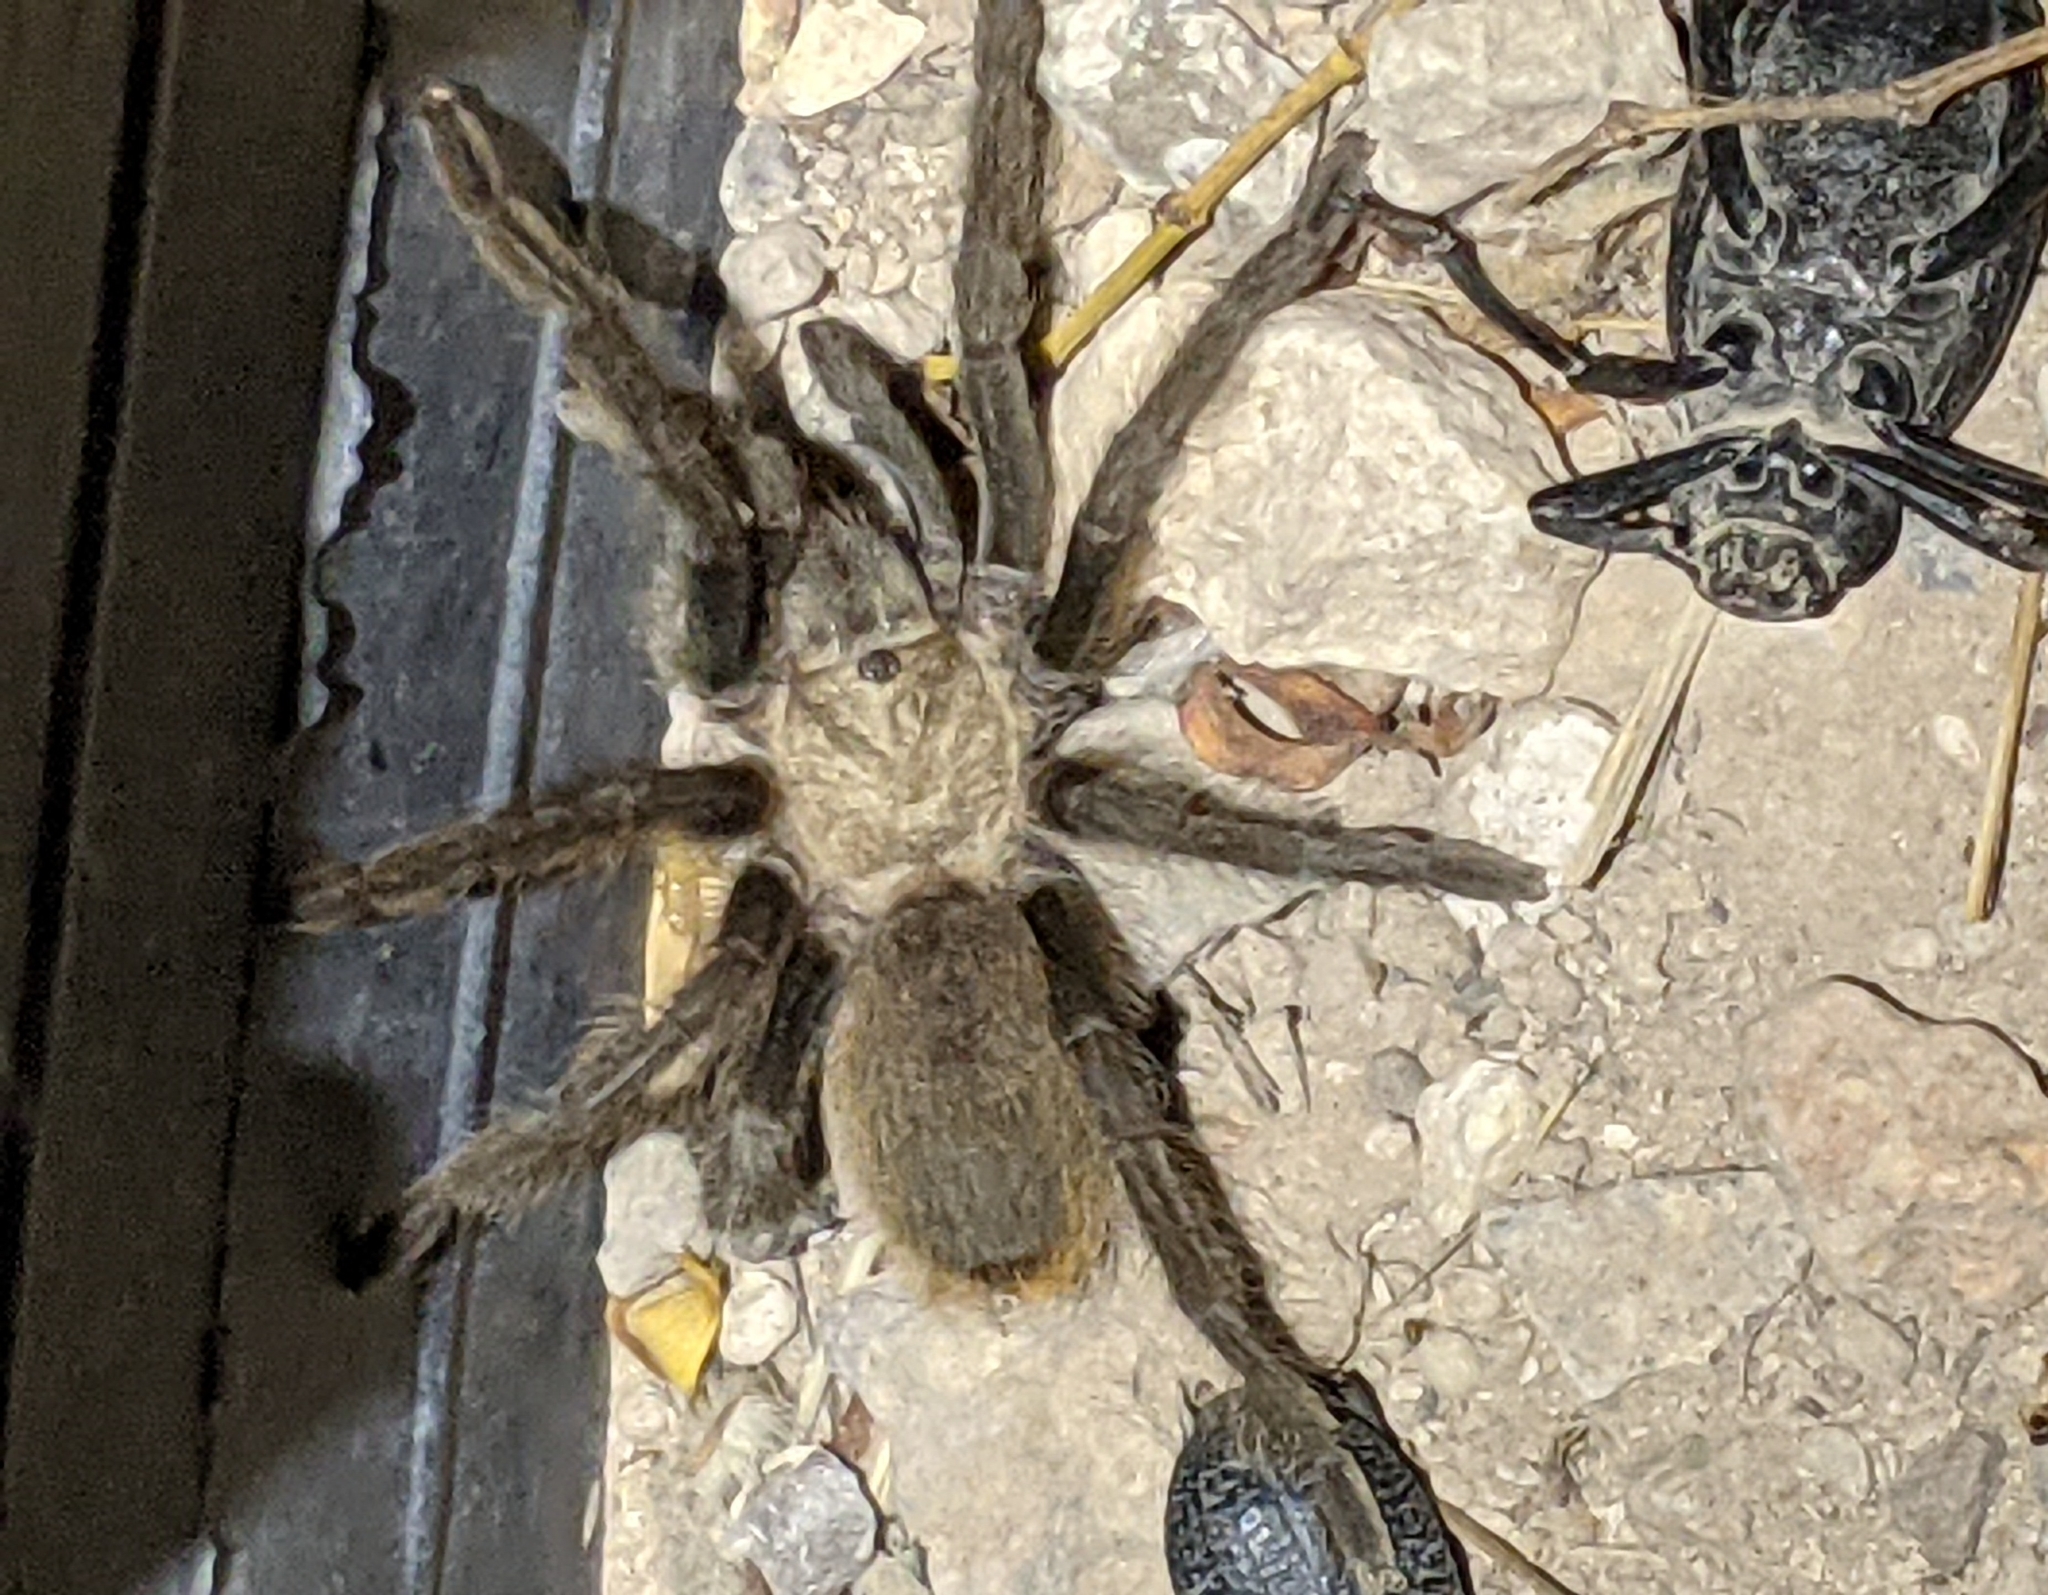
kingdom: Animalia
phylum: Arthropoda
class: Arachnida
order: Araneae
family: Theraphosidae
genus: Aphonopelma
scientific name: Aphonopelma hentzi
